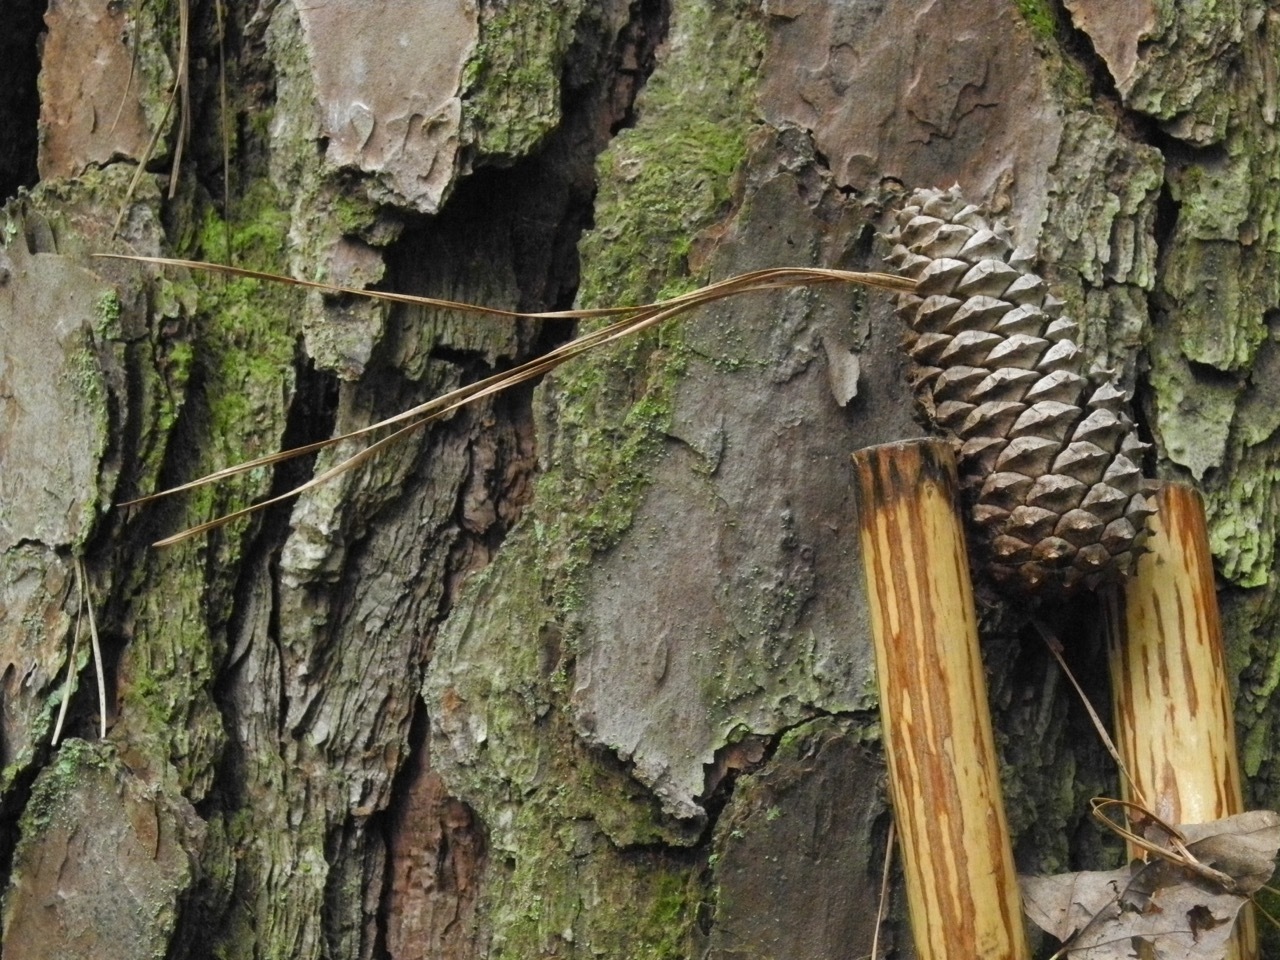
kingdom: Plantae
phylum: Tracheophyta
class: Pinopsida
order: Pinales
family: Pinaceae
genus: Pinus
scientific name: Pinus taeda
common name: Loblolly pine
